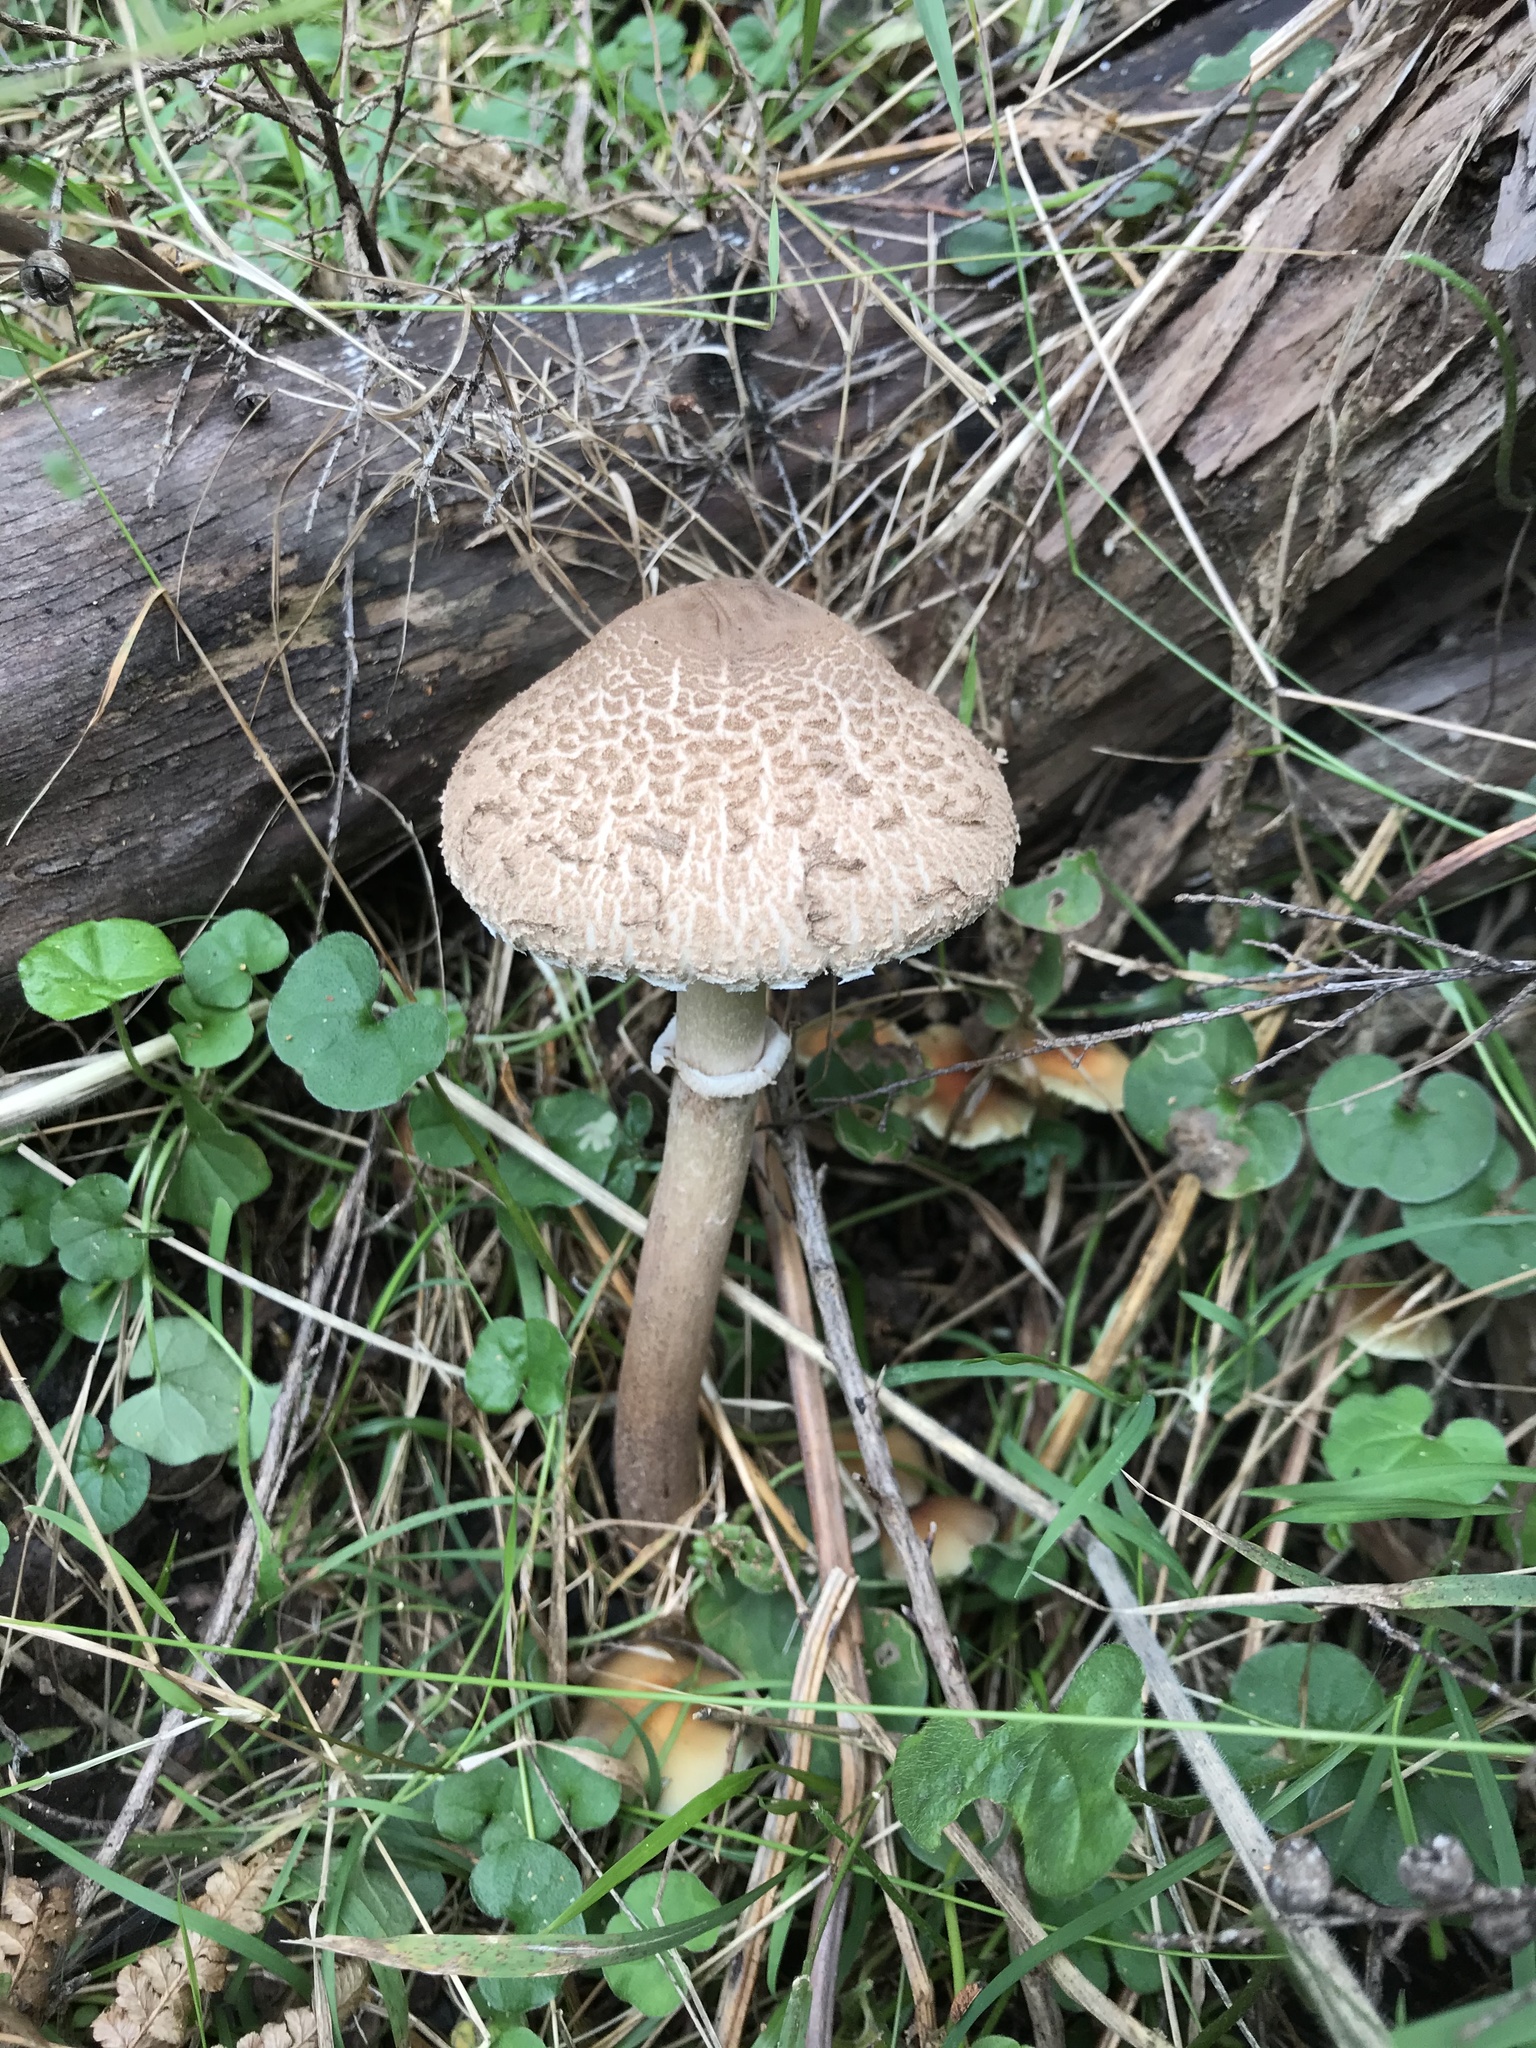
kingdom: Fungi
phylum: Basidiomycota
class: Agaricomycetes
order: Agaricales
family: Agaricaceae
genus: Macrolepiota
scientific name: Macrolepiota clelandii
